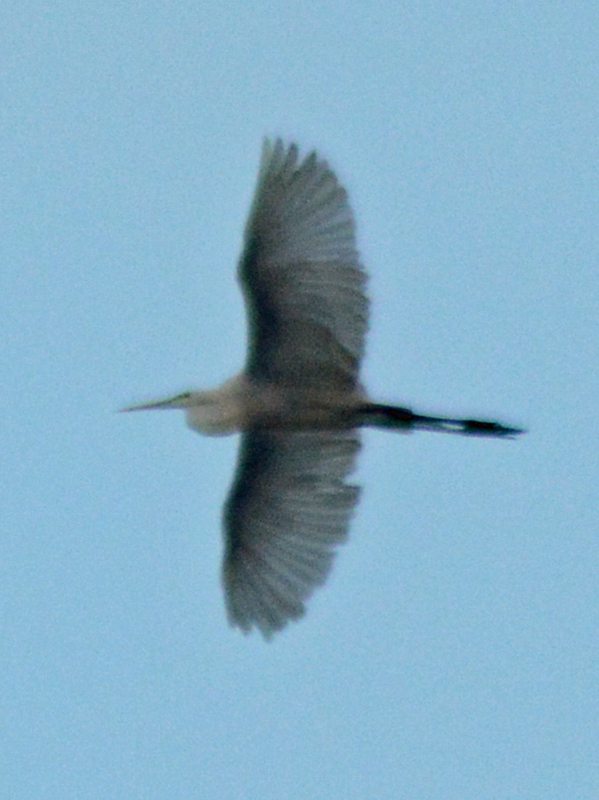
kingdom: Animalia
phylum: Chordata
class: Aves
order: Pelecaniformes
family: Ardeidae
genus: Ardea
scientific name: Ardea alba
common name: Great egret
